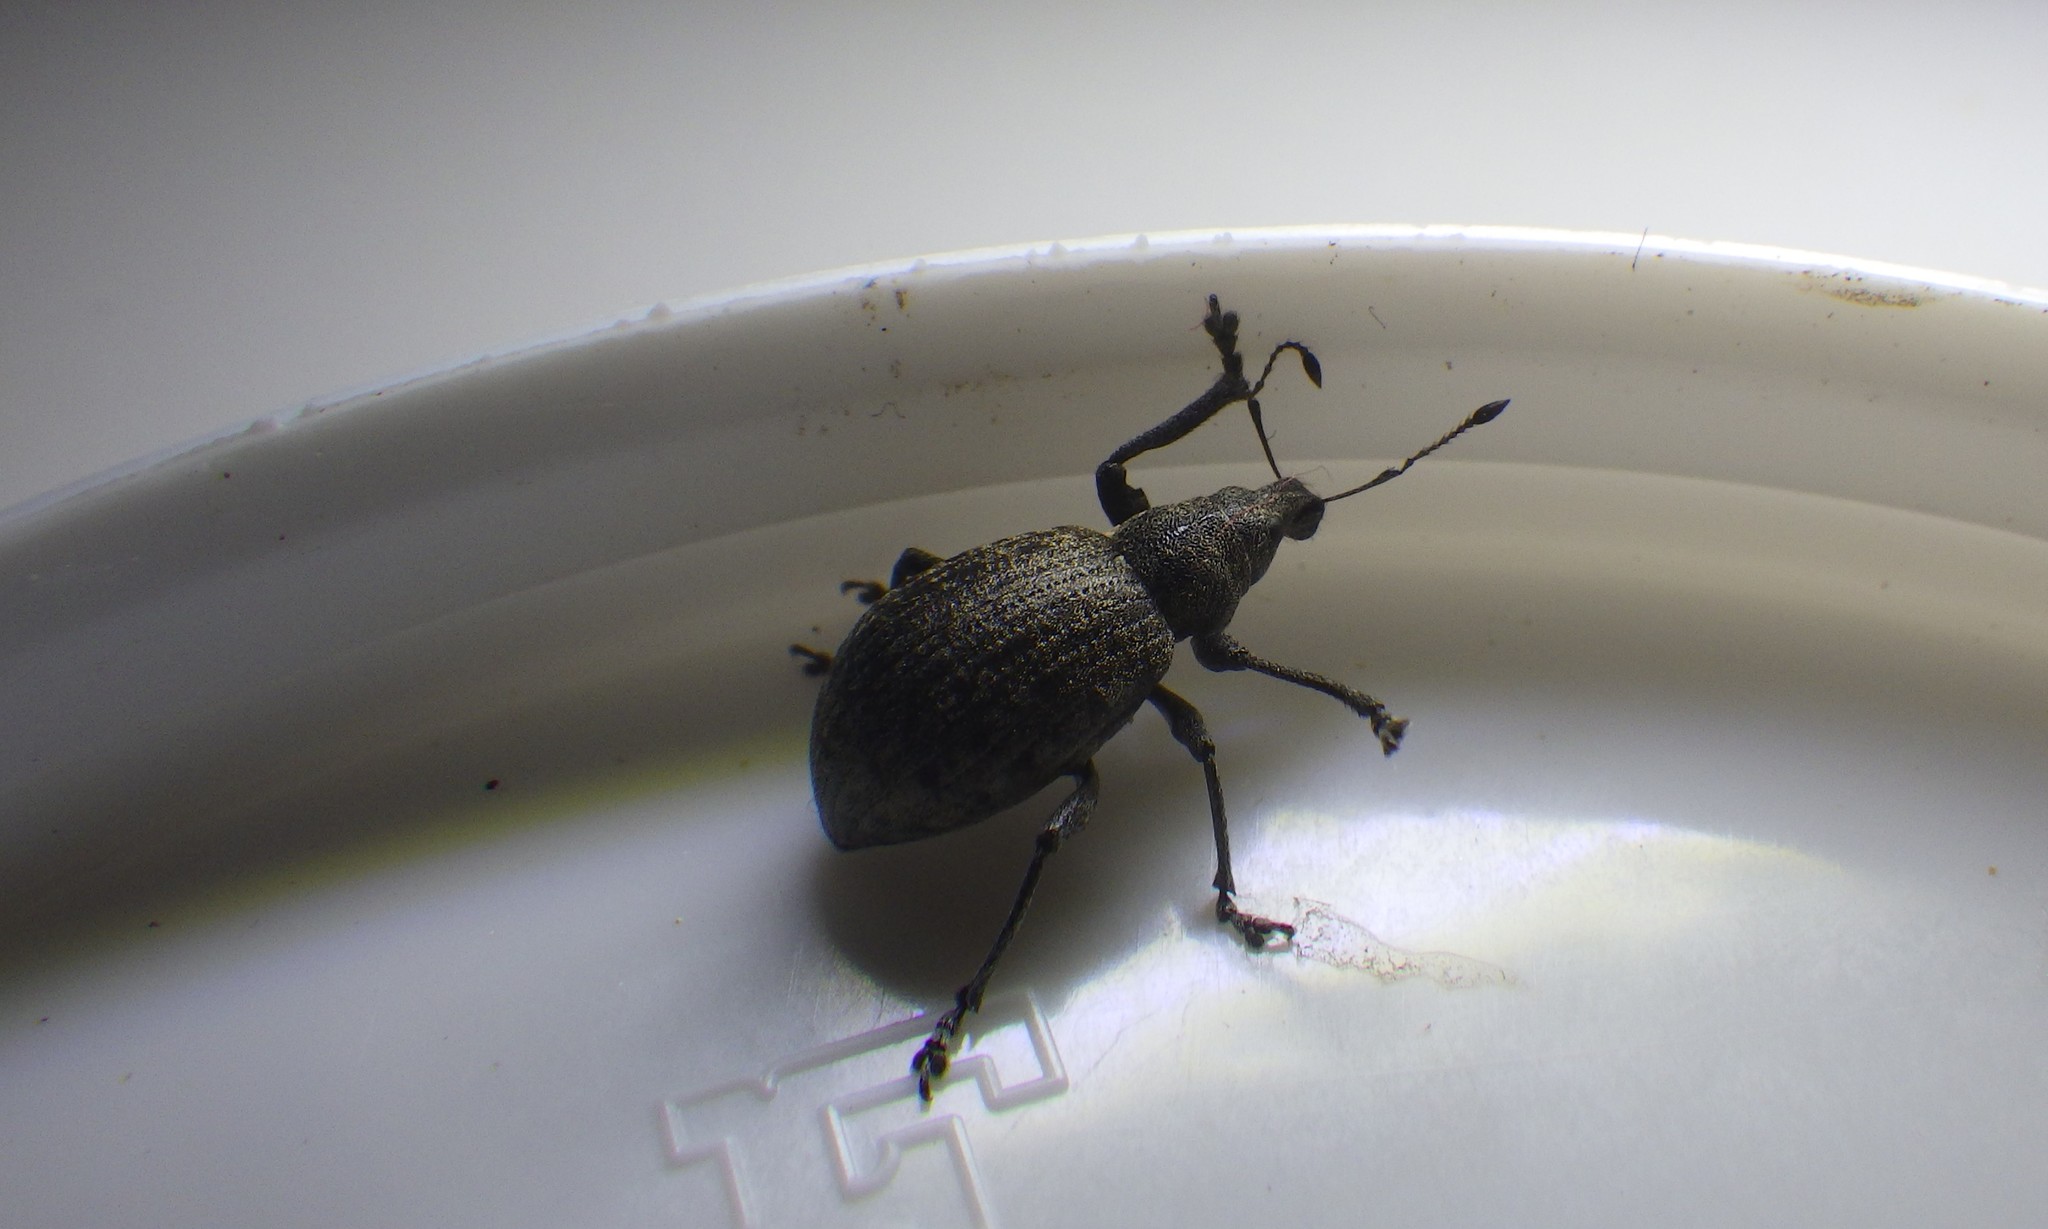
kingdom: Animalia
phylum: Arthropoda
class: Insecta
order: Coleoptera
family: Curculionidae
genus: Liophloeus
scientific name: Liophloeus tessulatus
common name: Weevil
